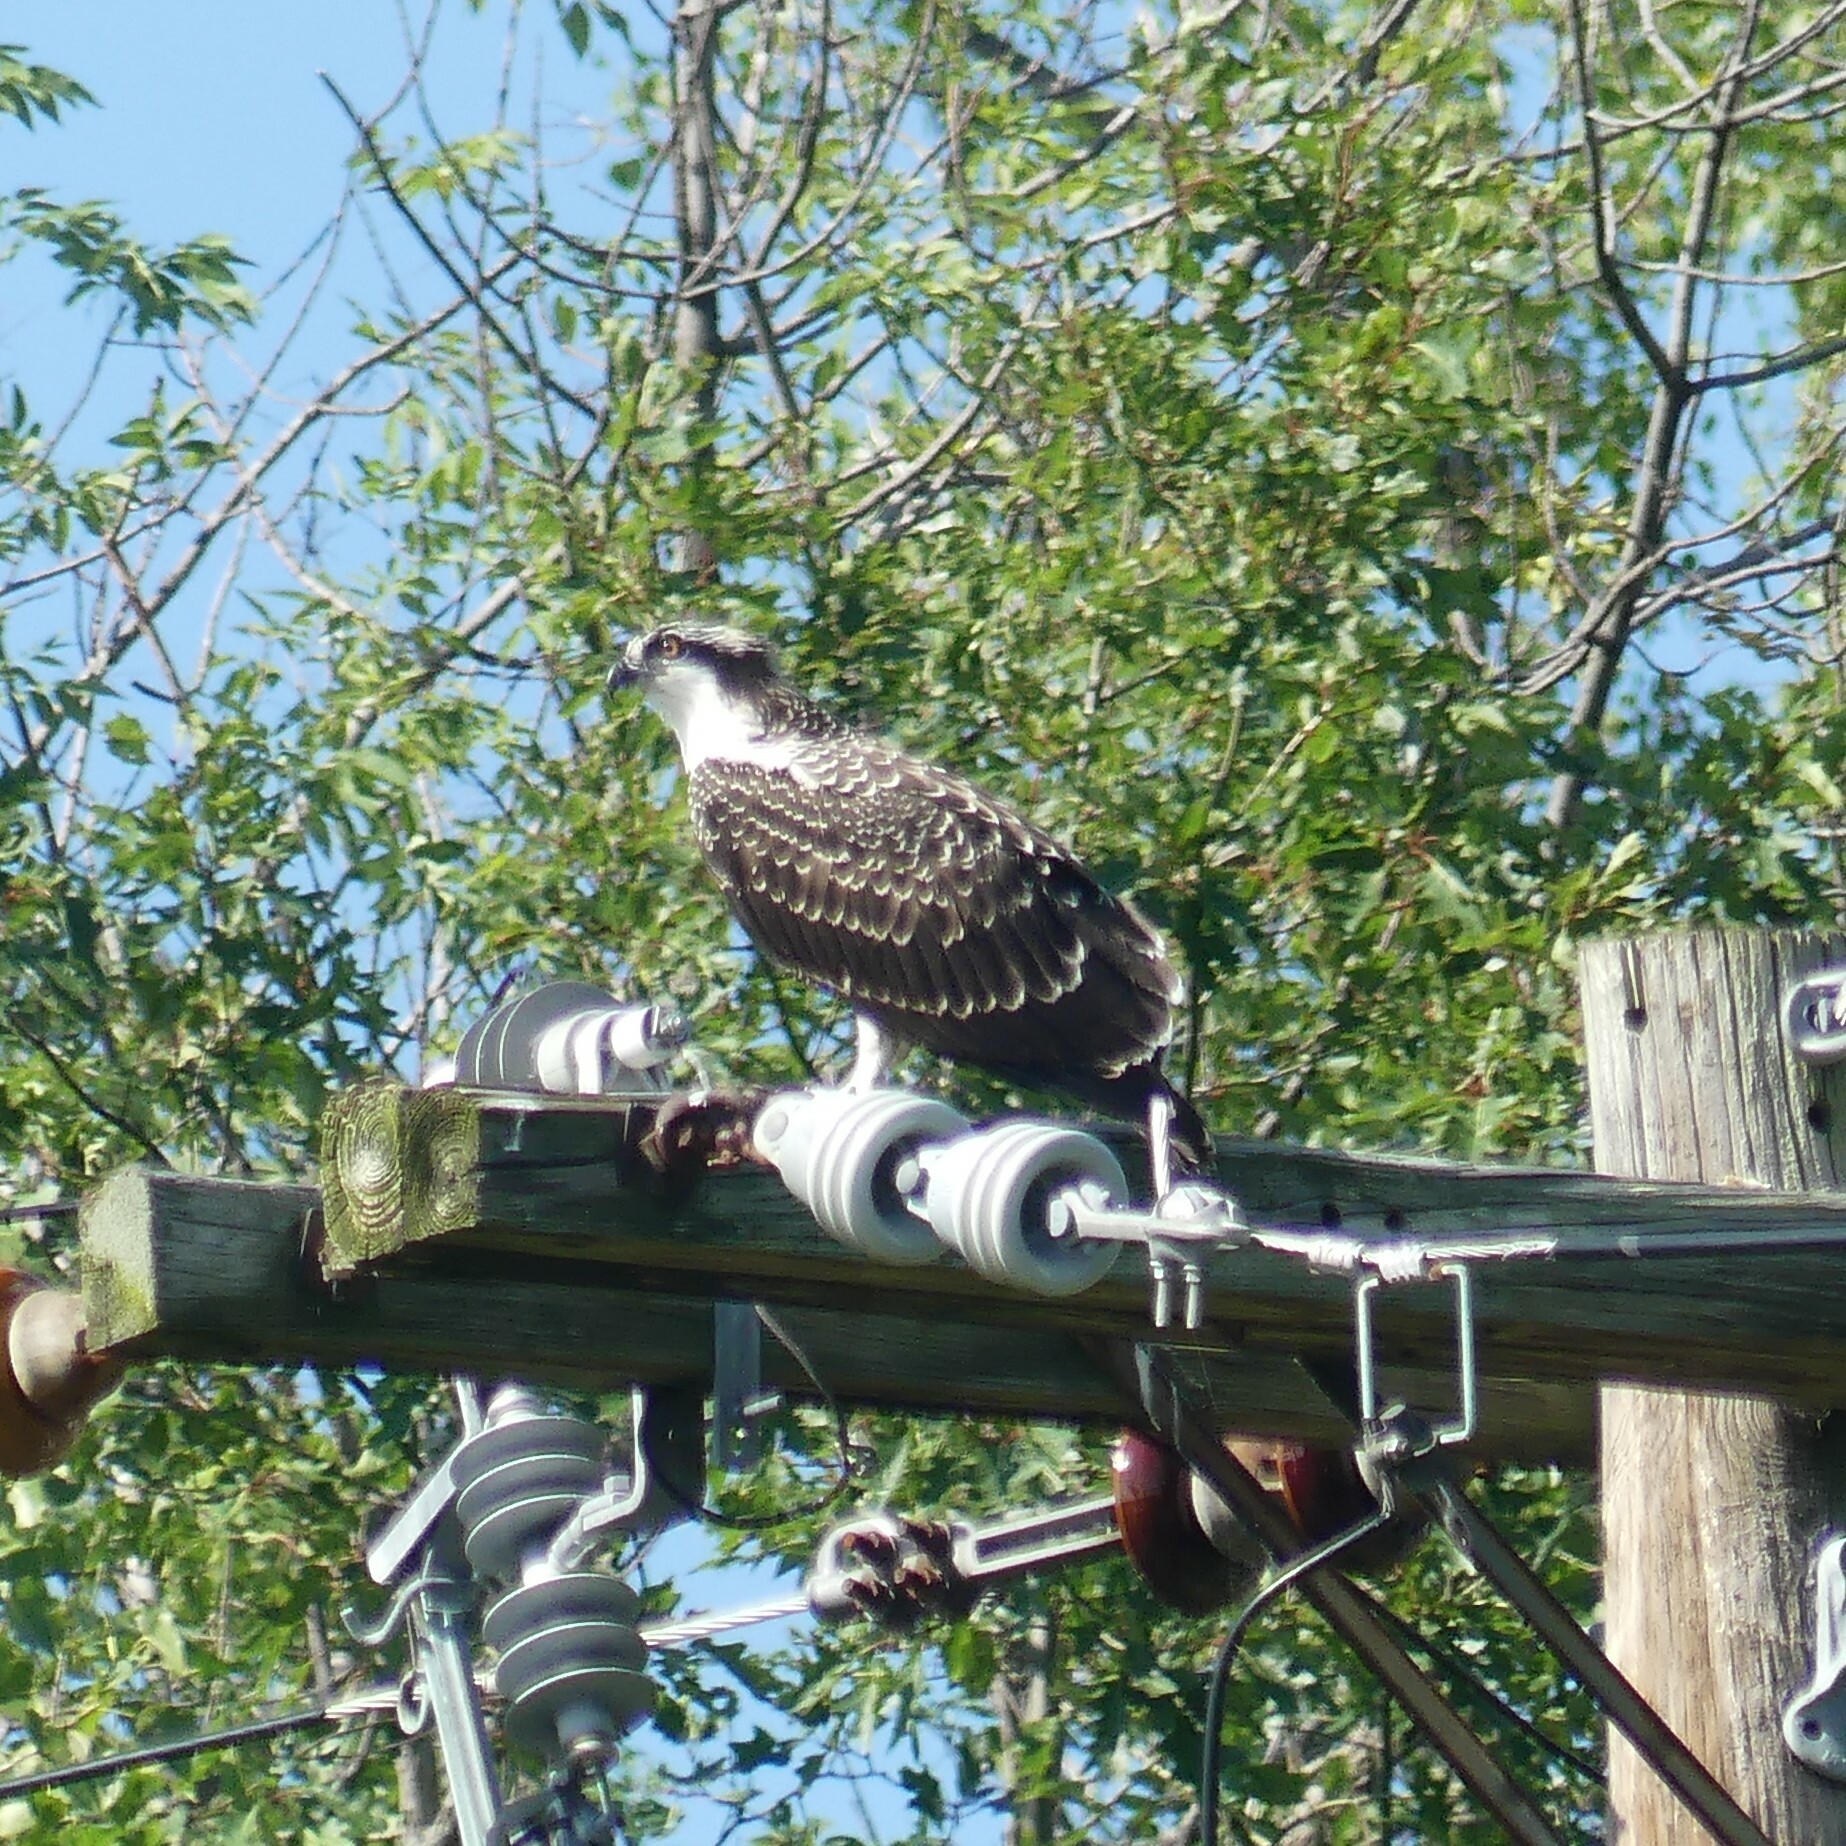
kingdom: Animalia
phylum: Chordata
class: Aves
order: Accipitriformes
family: Pandionidae
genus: Pandion
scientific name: Pandion haliaetus
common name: Osprey
